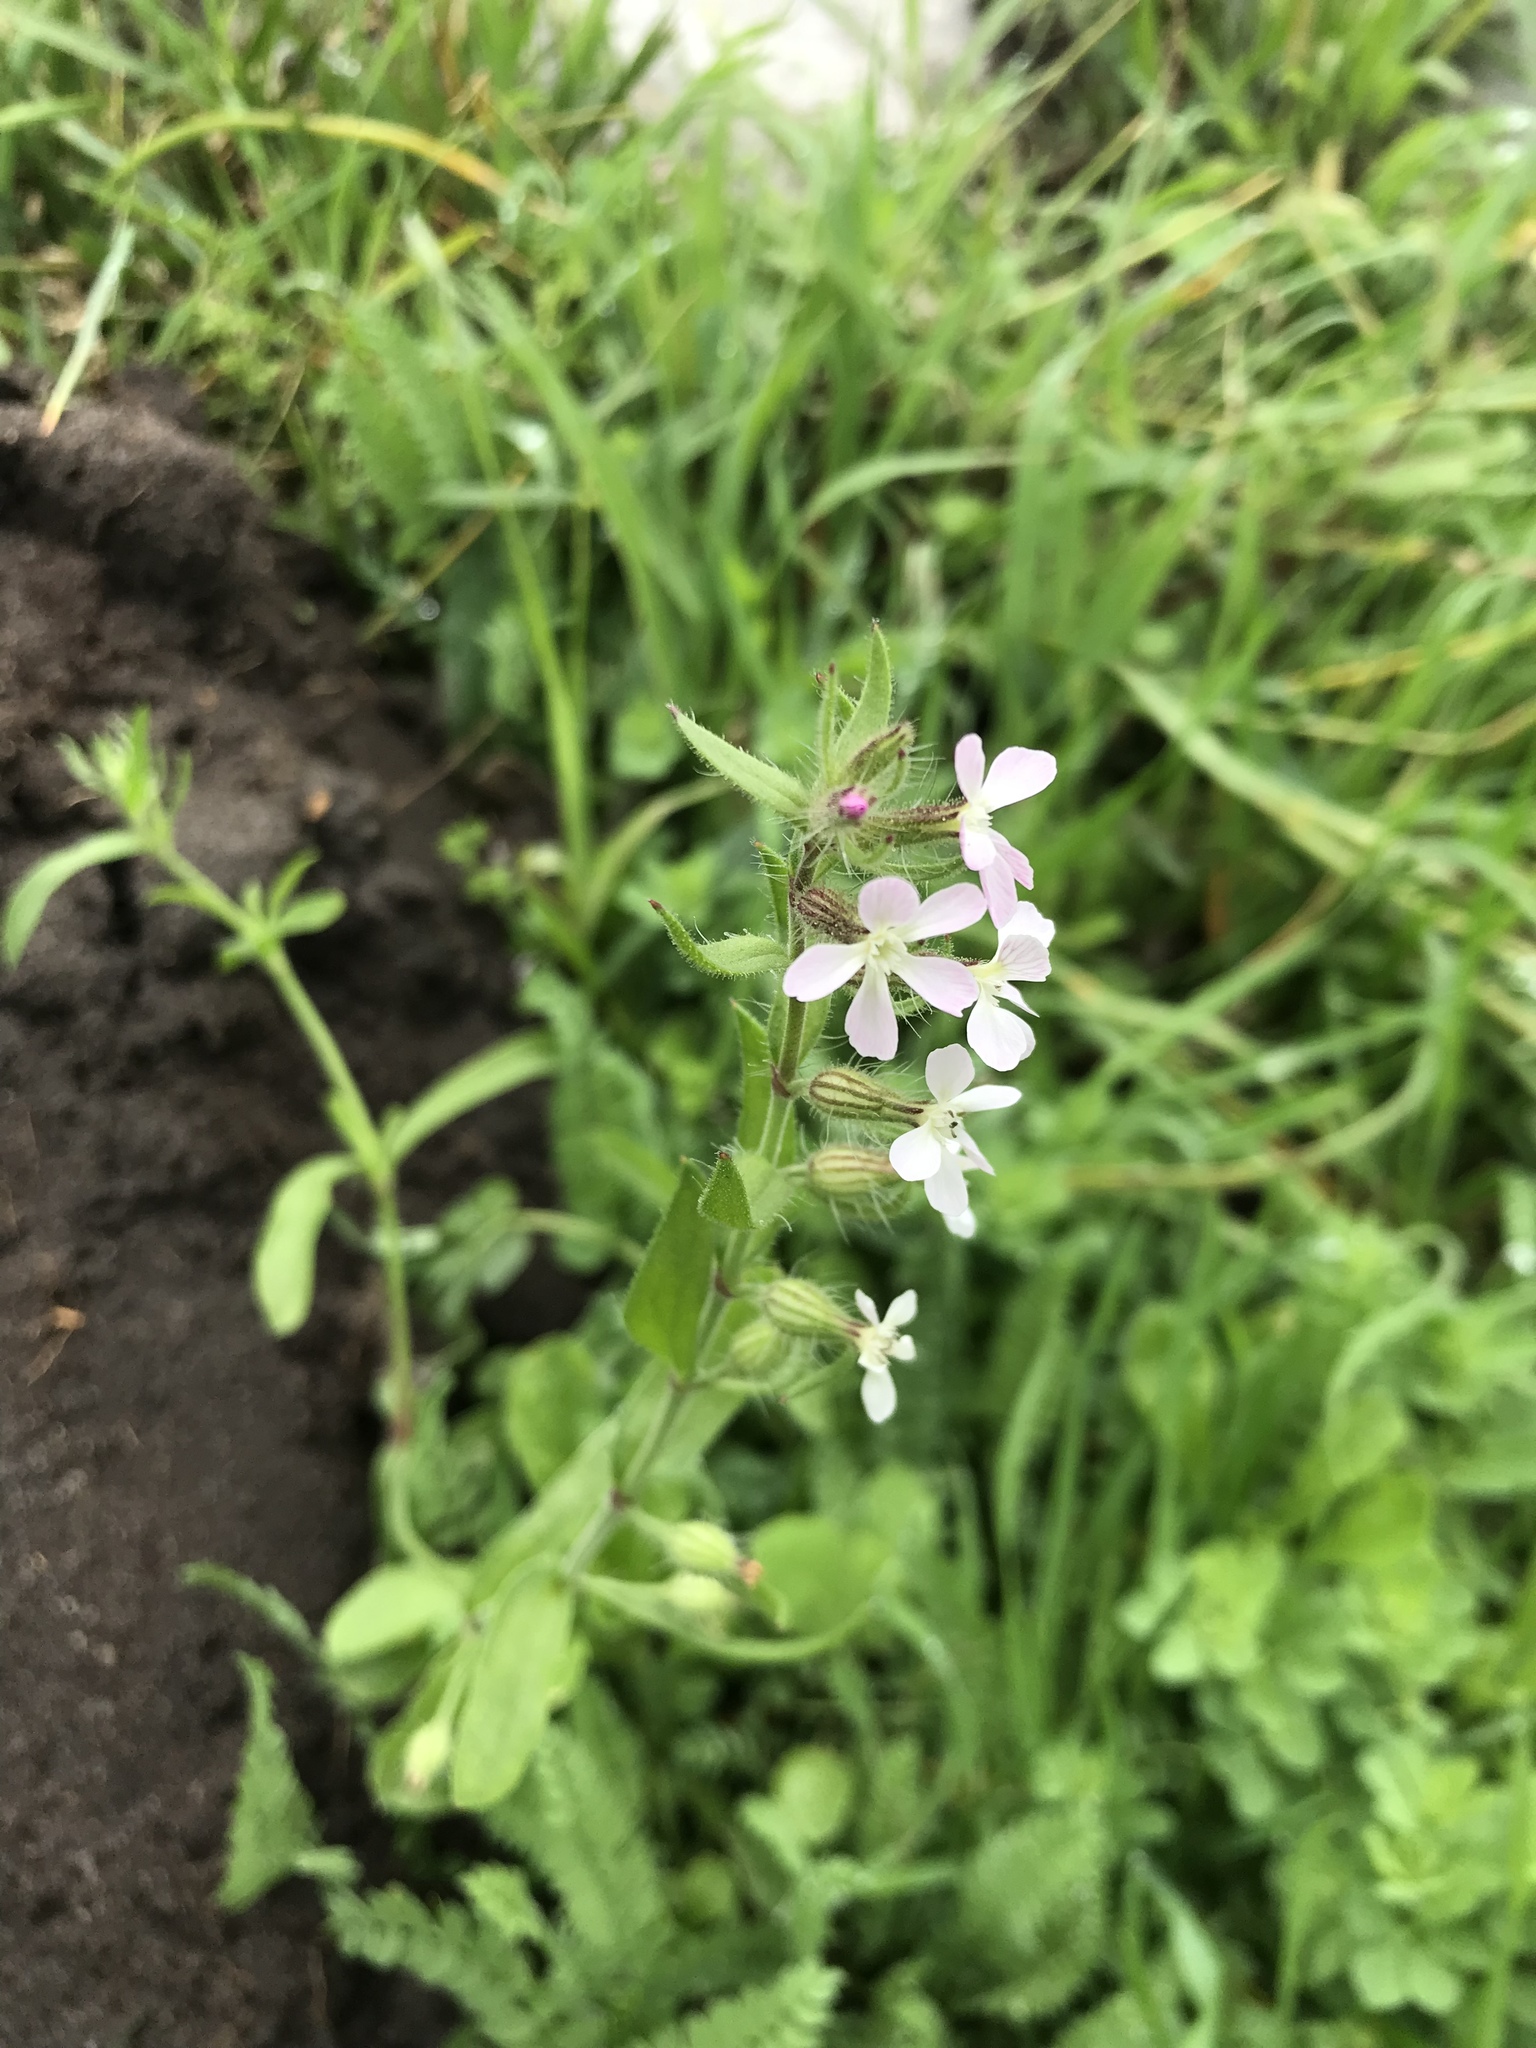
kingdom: Plantae
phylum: Tracheophyta
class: Magnoliopsida
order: Caryophyllales
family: Caryophyllaceae
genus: Silene
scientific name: Silene gallica
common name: Small-flowered catchfly
